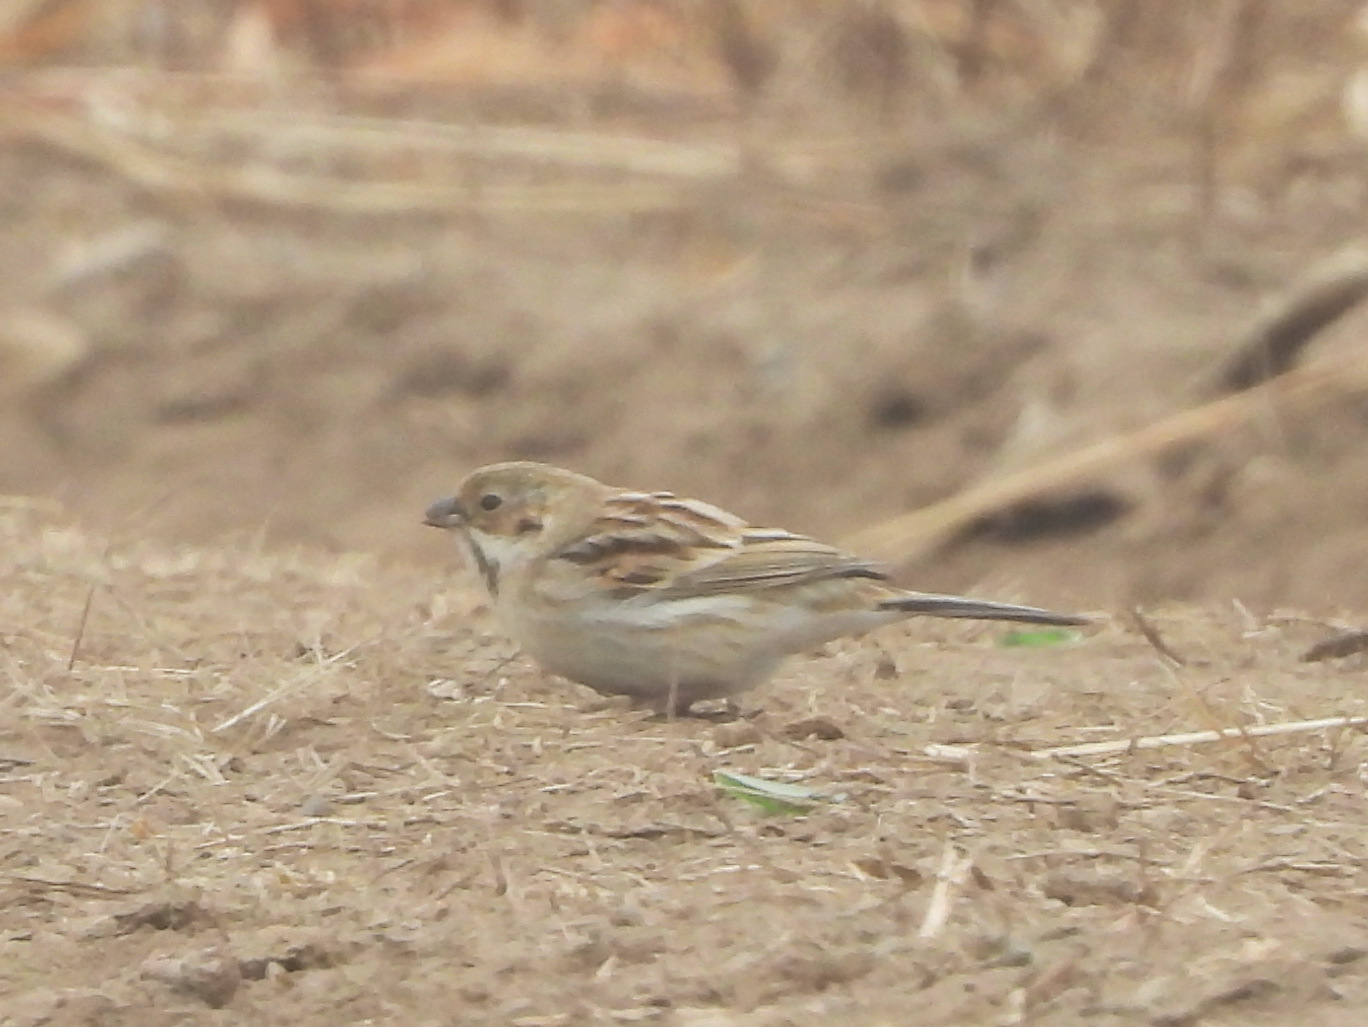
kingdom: Animalia
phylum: Chordata
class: Aves
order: Passeriformes
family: Emberizidae
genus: Emberiza
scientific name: Emberiza pallasi
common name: Pallas's reed bunting
